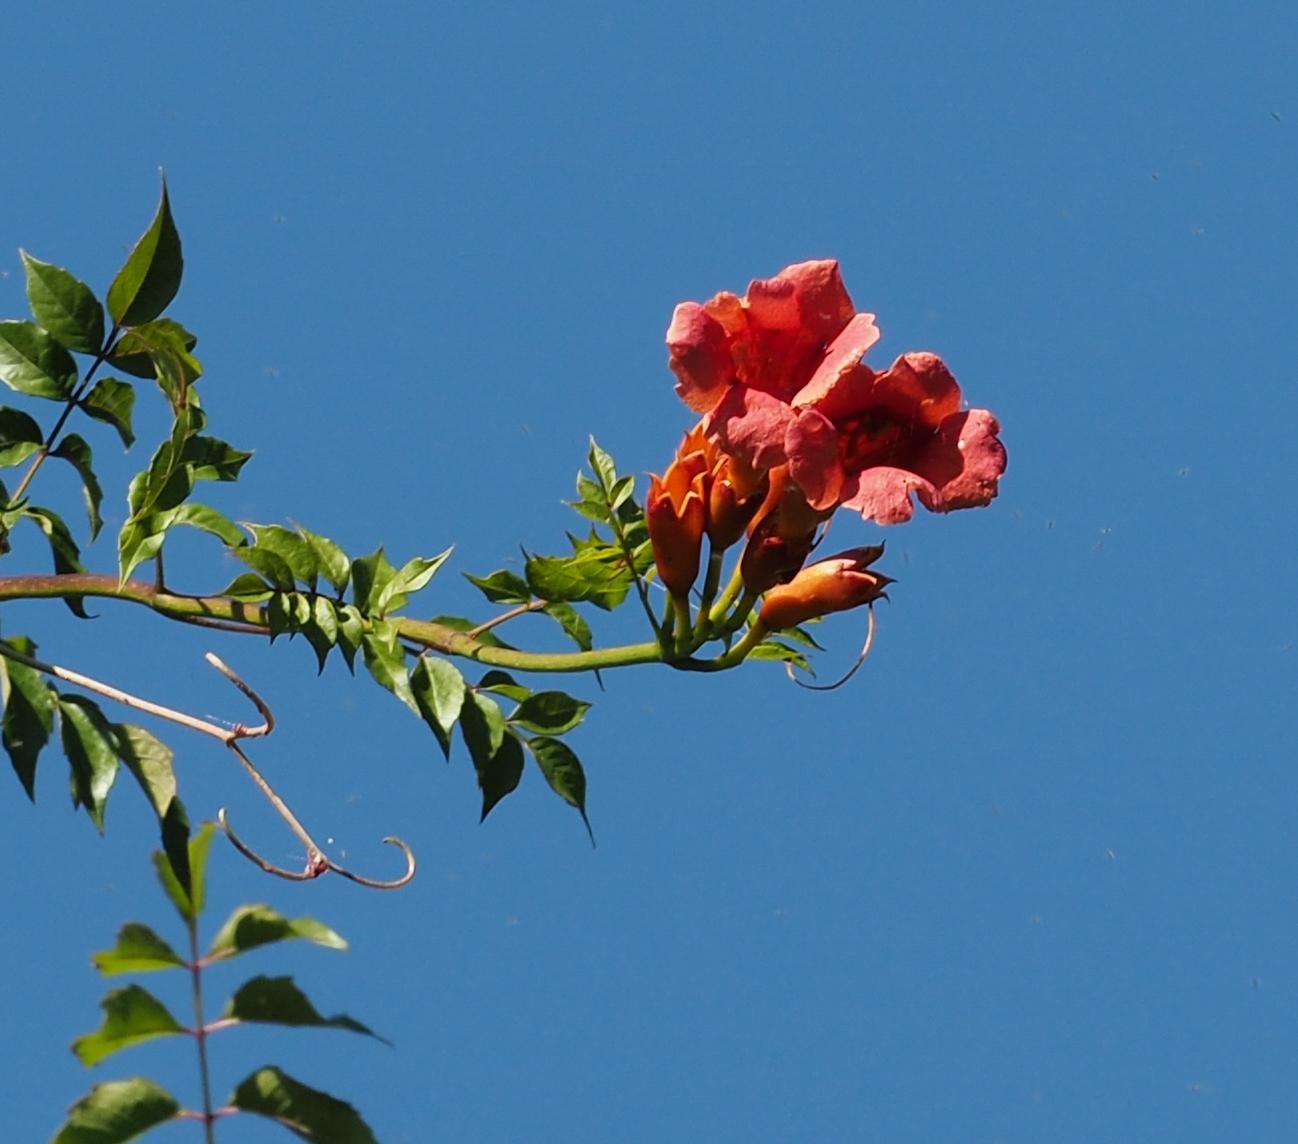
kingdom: Plantae
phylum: Tracheophyta
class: Magnoliopsida
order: Lamiales
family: Bignoniaceae
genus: Campsis
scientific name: Campsis radicans
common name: Trumpet-creeper
